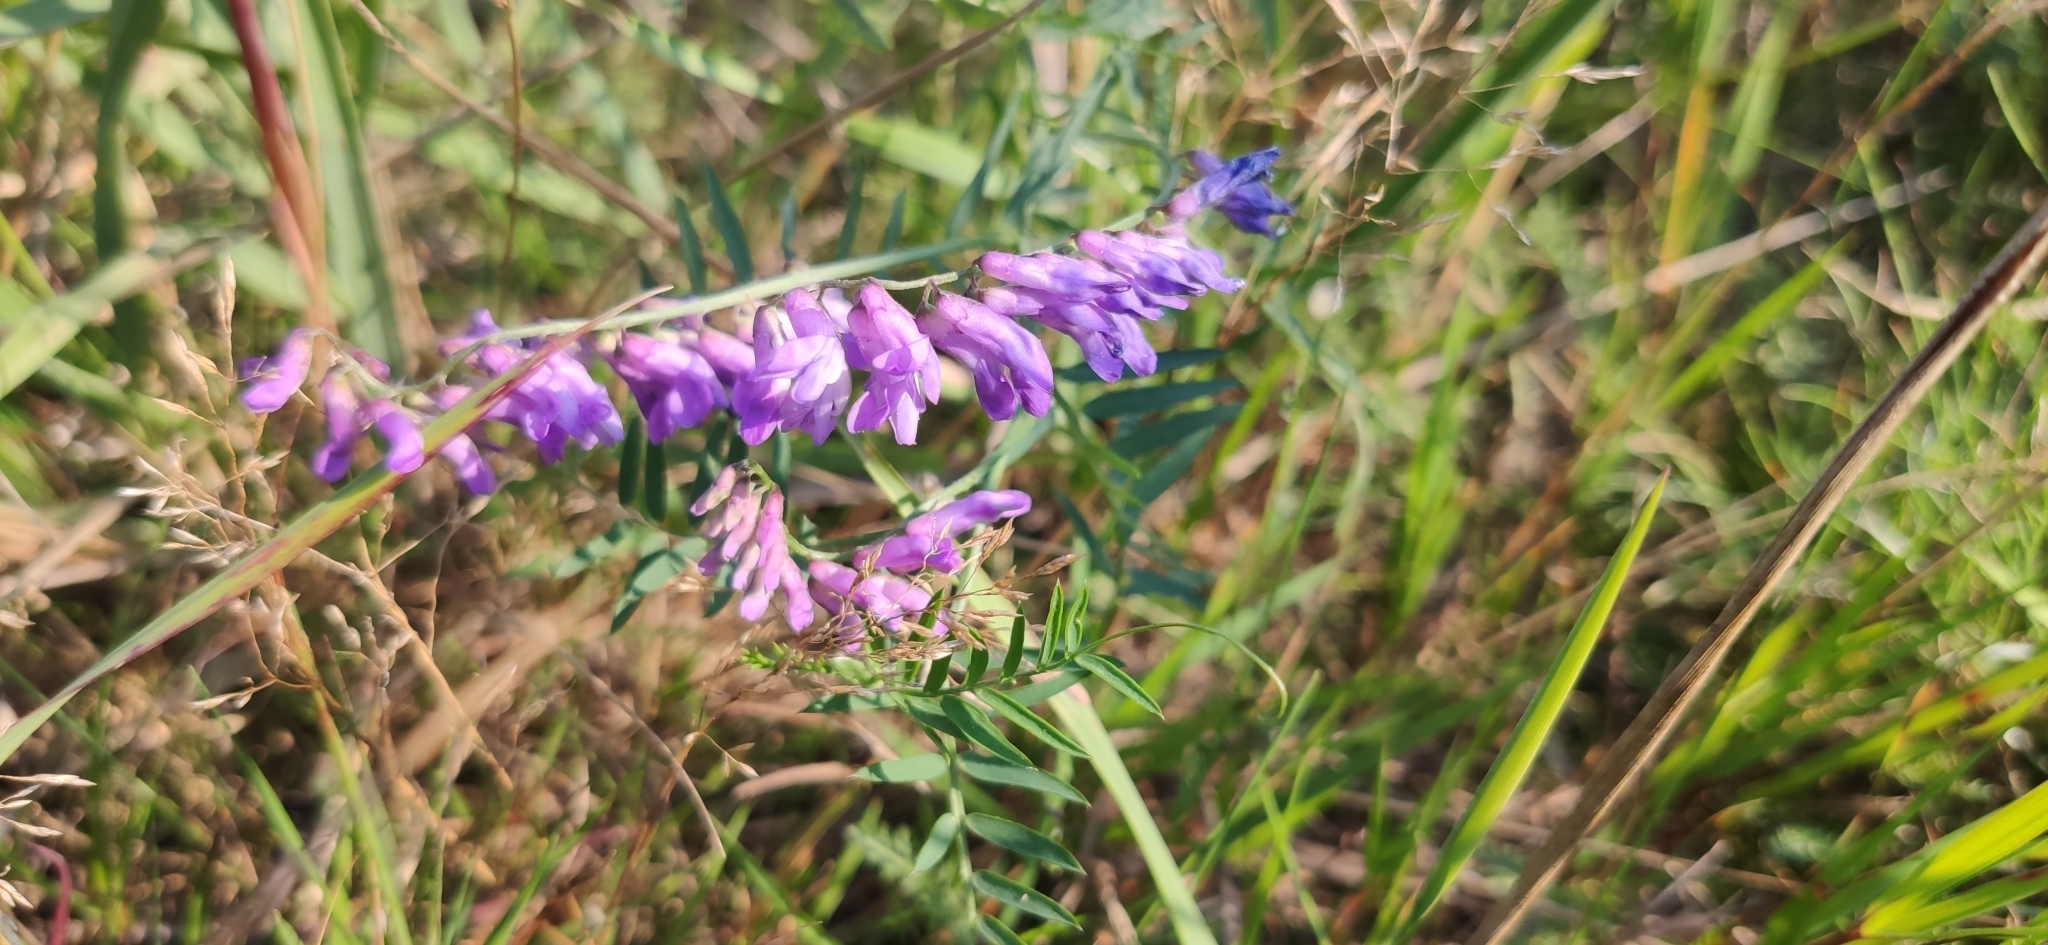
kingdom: Plantae
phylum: Tracheophyta
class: Magnoliopsida
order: Fabales
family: Fabaceae
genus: Vicia
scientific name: Vicia cracca
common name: Bird vetch
